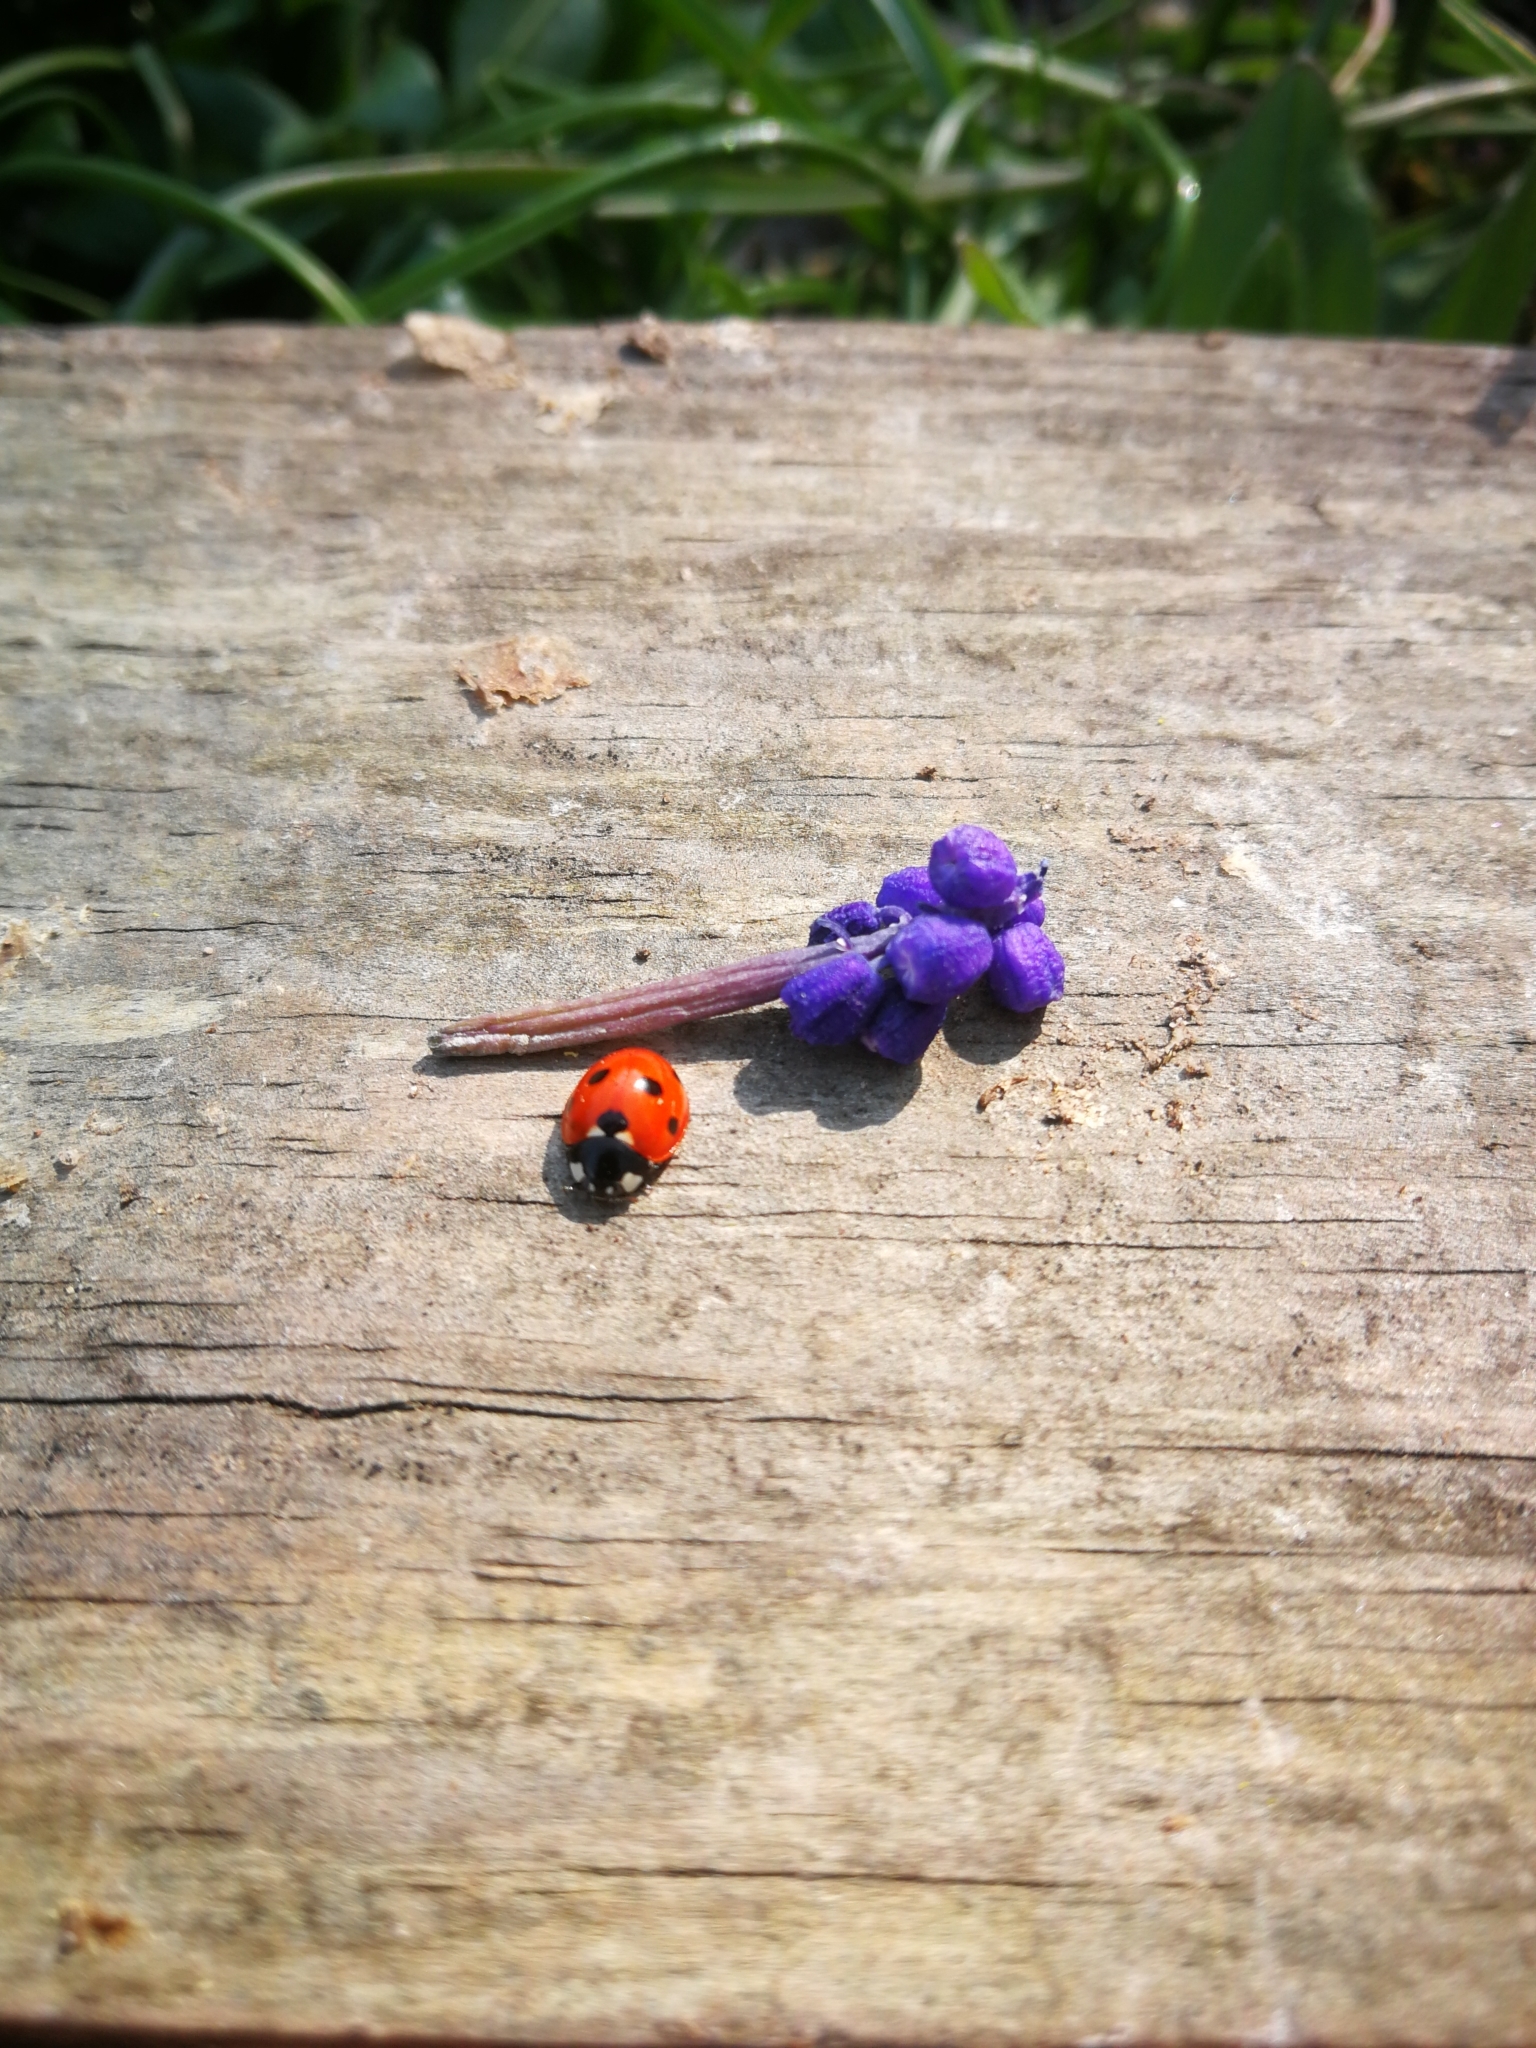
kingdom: Animalia
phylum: Arthropoda
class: Insecta
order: Coleoptera
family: Coccinellidae
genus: Coccinella
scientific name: Coccinella septempunctata
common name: Sevenspotted lady beetle
